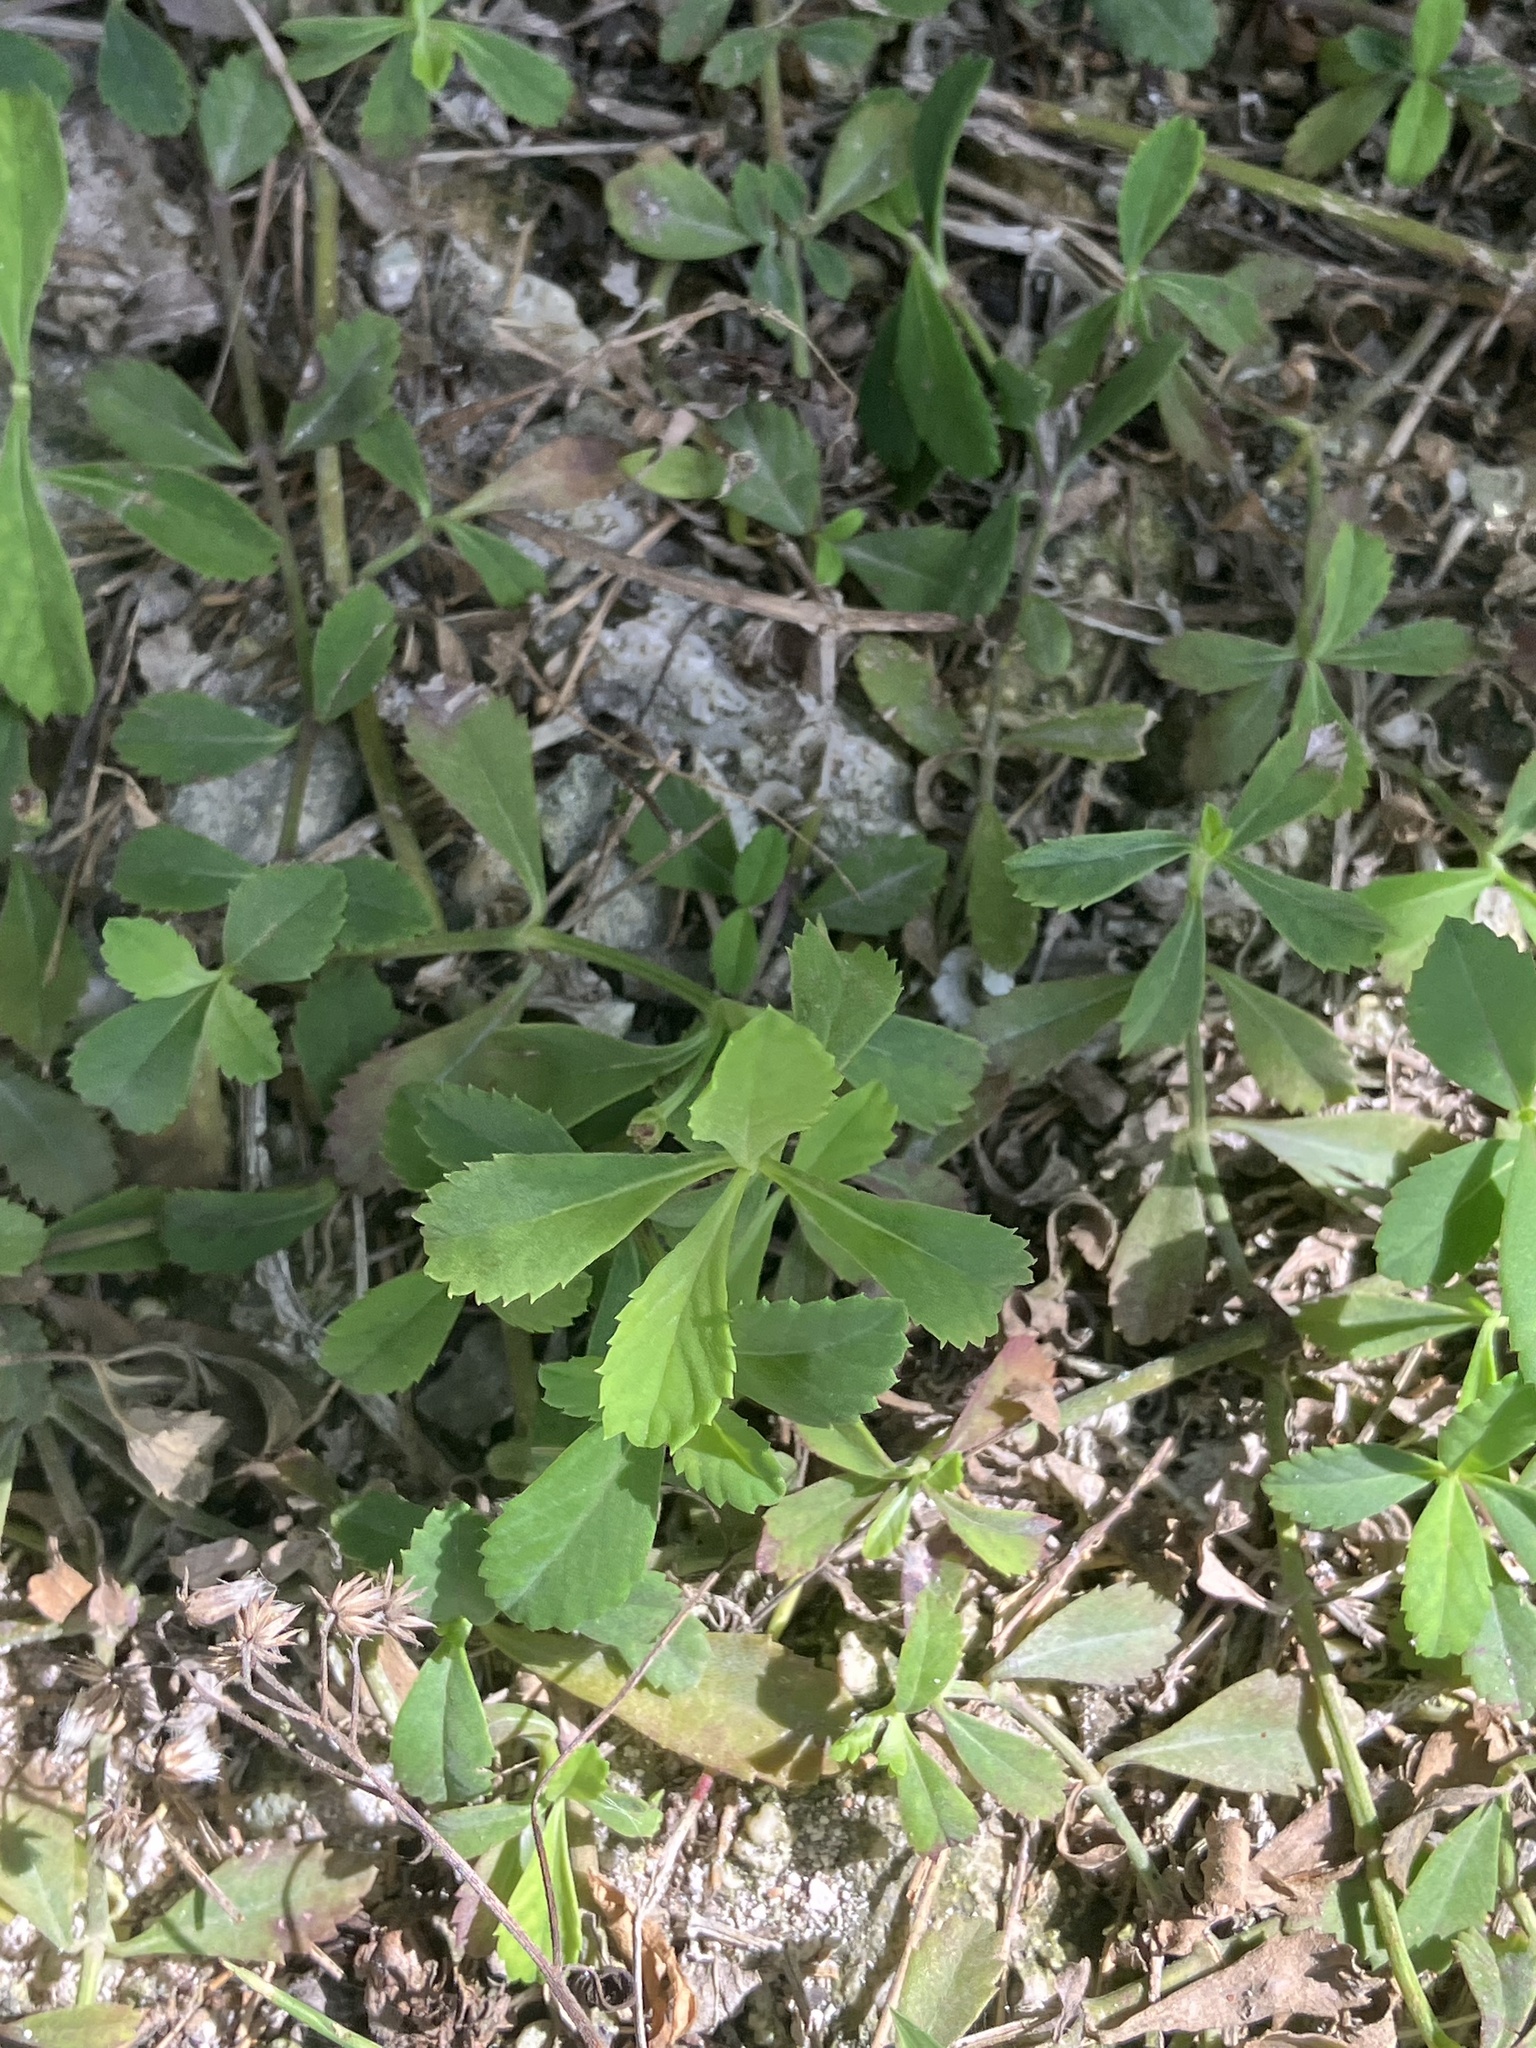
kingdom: Plantae
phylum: Tracheophyta
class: Magnoliopsida
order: Lamiales
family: Verbenaceae
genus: Phyla
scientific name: Phyla nodiflora
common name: Frogfruit
